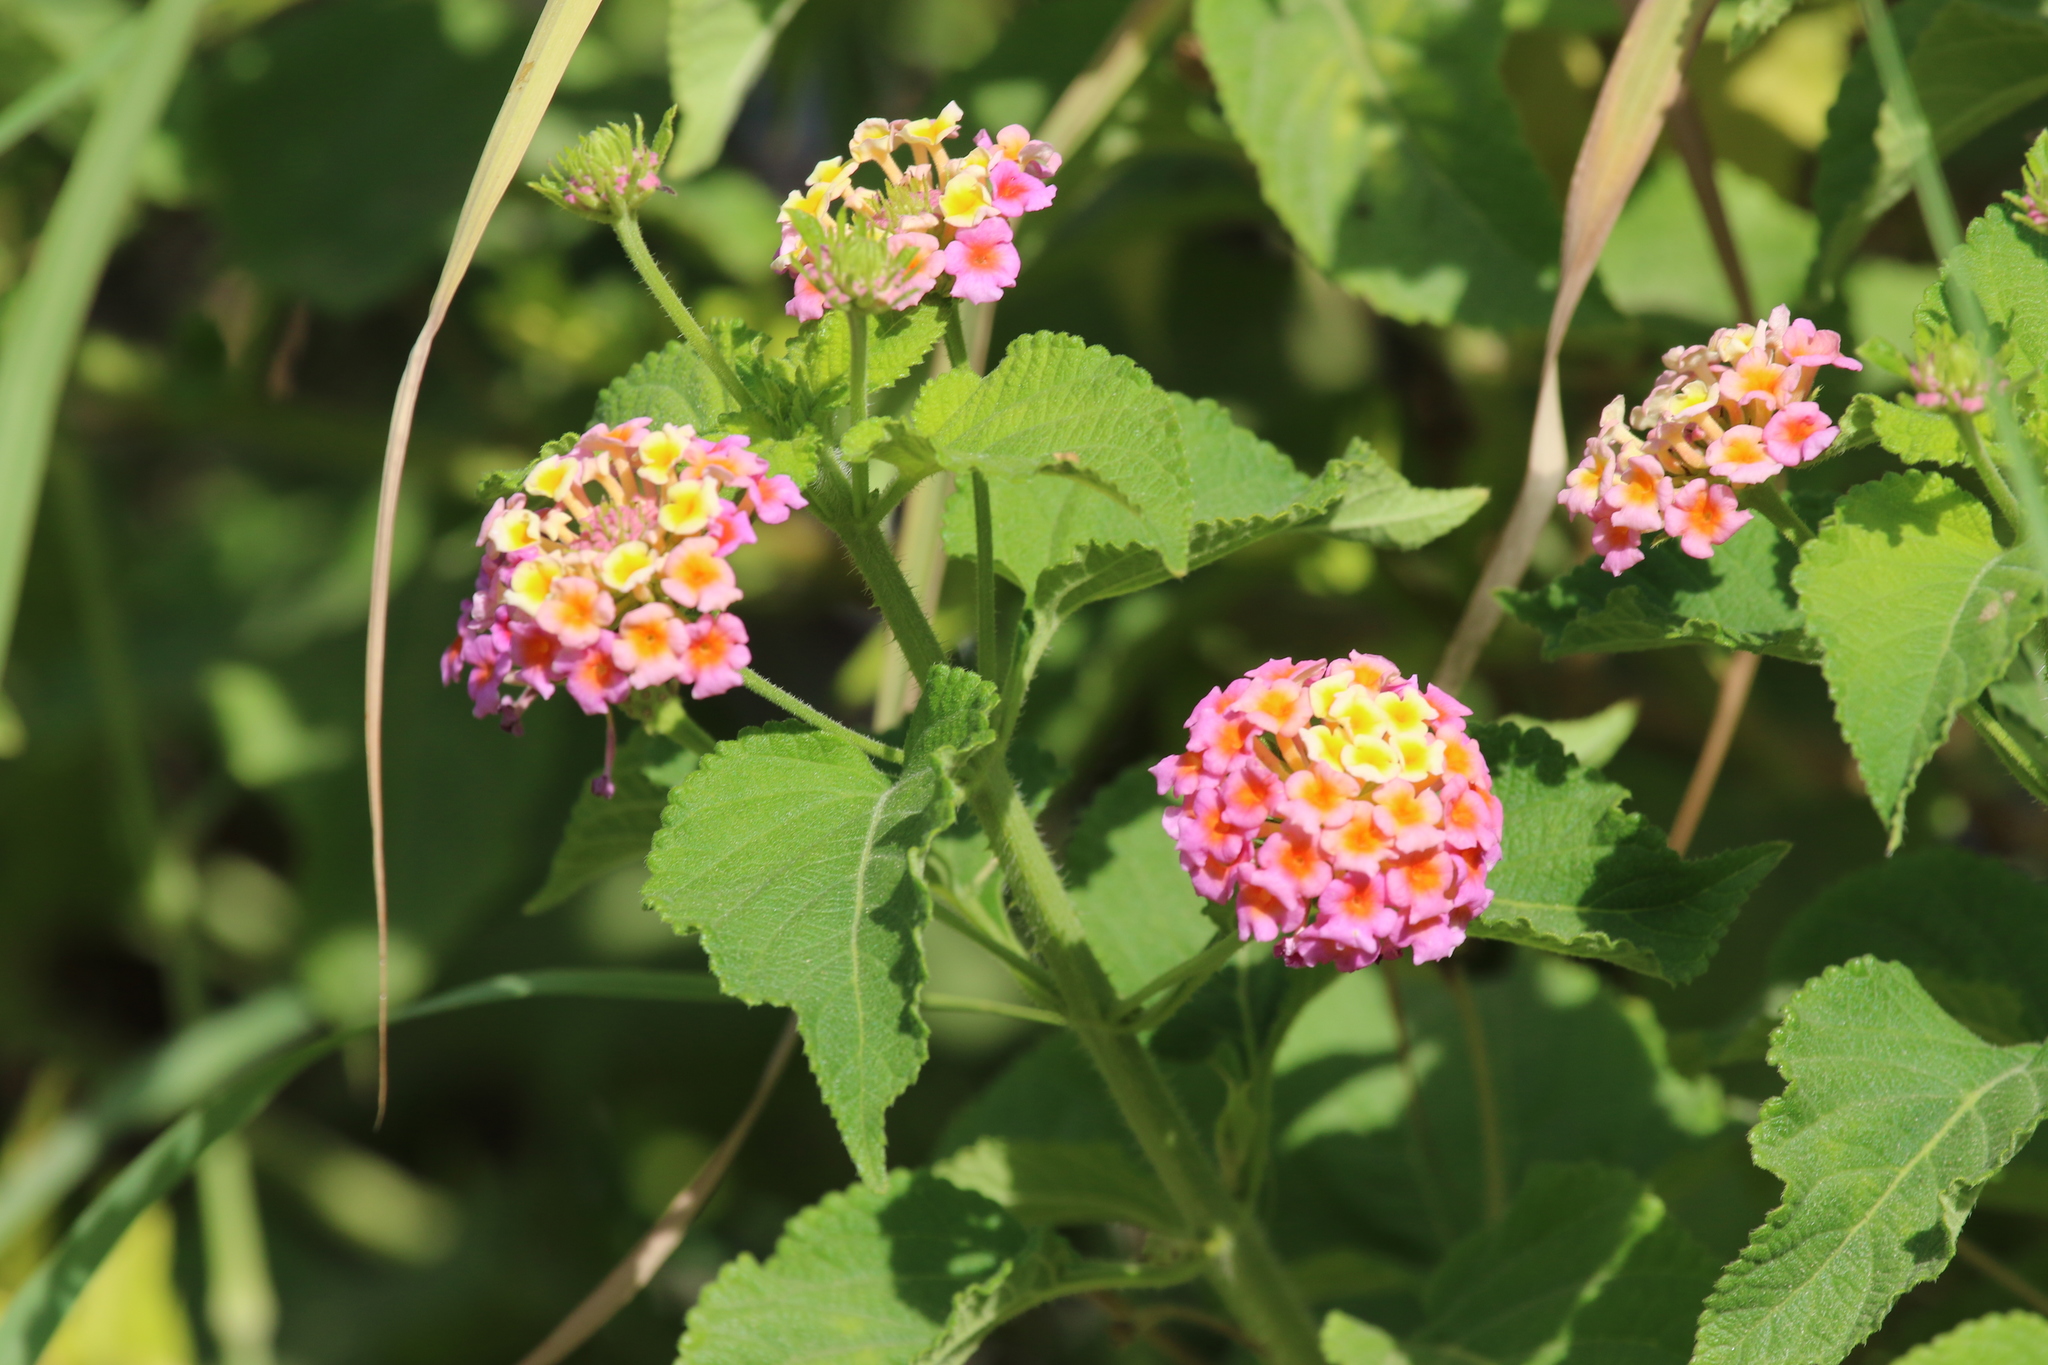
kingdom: Plantae
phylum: Tracheophyta
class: Magnoliopsida
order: Lamiales
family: Verbenaceae
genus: Lantana
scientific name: Lantana camara
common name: Lantana
